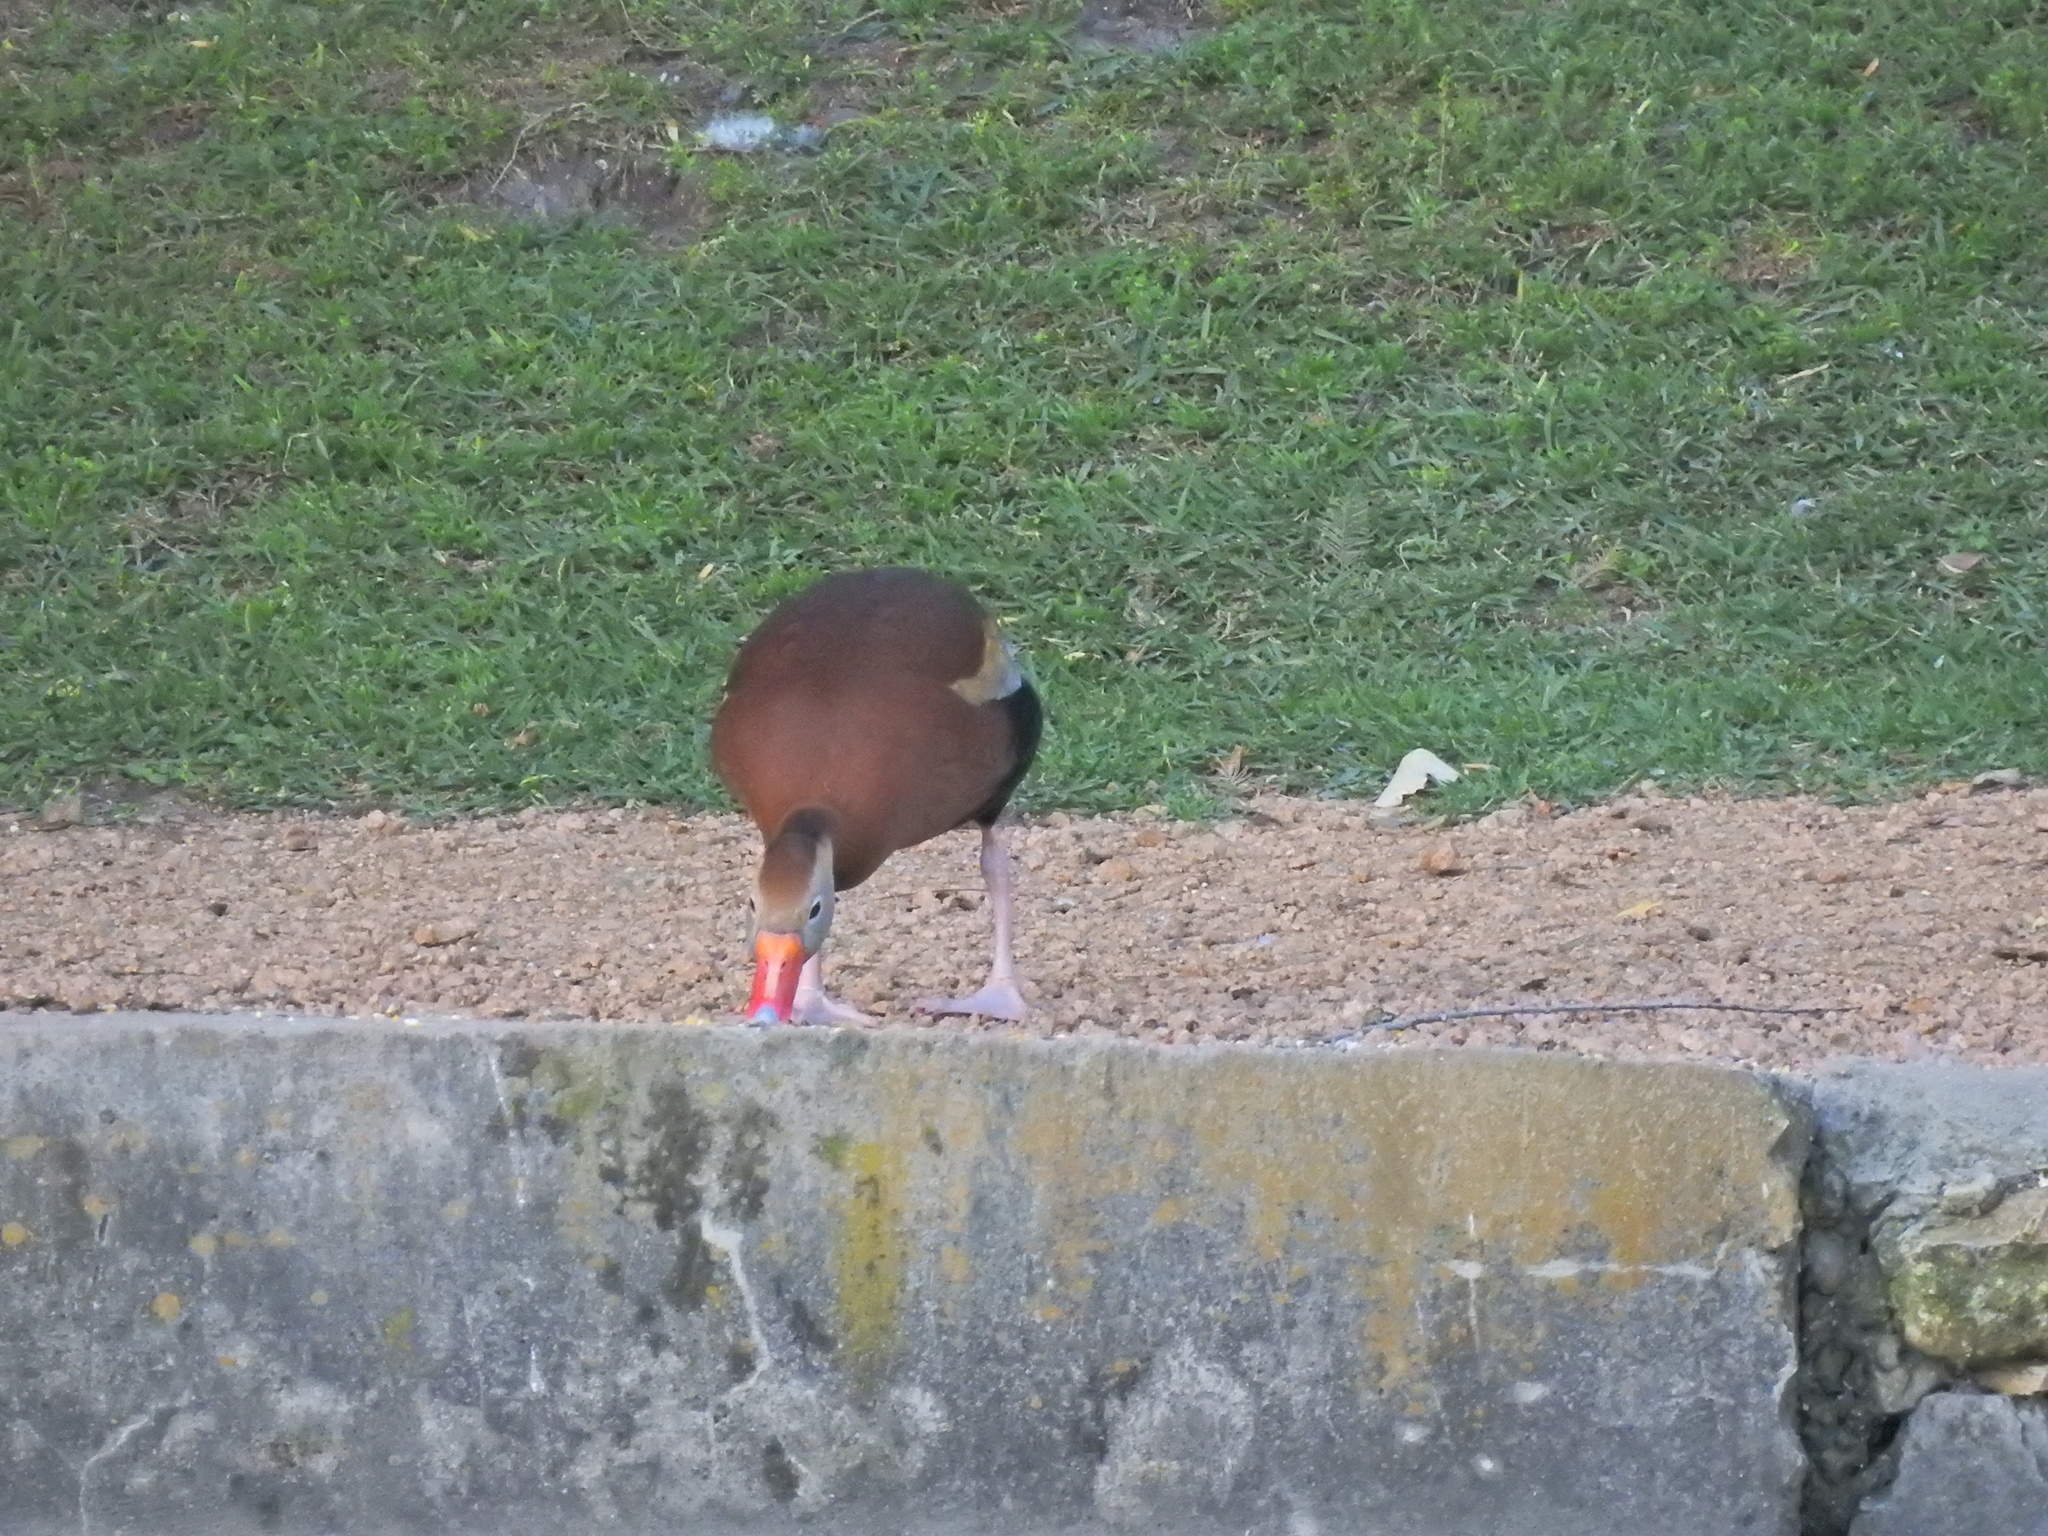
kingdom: Animalia
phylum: Chordata
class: Aves
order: Anseriformes
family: Anatidae
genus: Dendrocygna
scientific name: Dendrocygna autumnalis
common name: Black-bellied whistling duck
